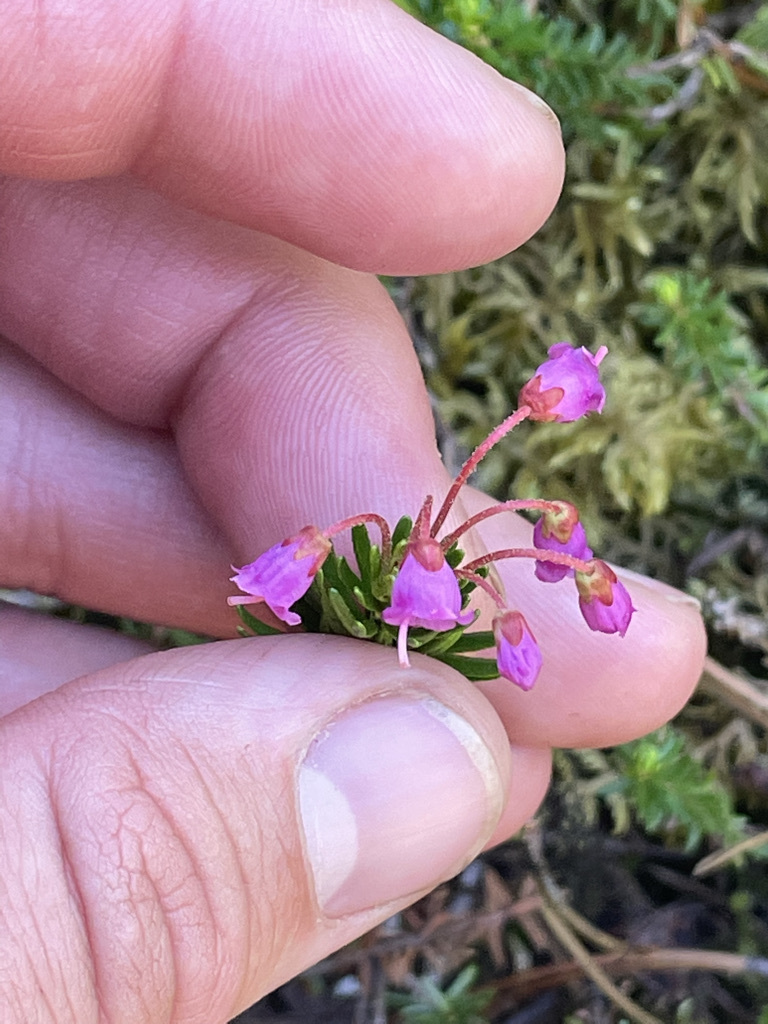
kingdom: Plantae
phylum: Tracheophyta
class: Magnoliopsida
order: Ericales
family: Ericaceae
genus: Phyllodoce
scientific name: Phyllodoce empetriformis
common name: Pink mountain heather
